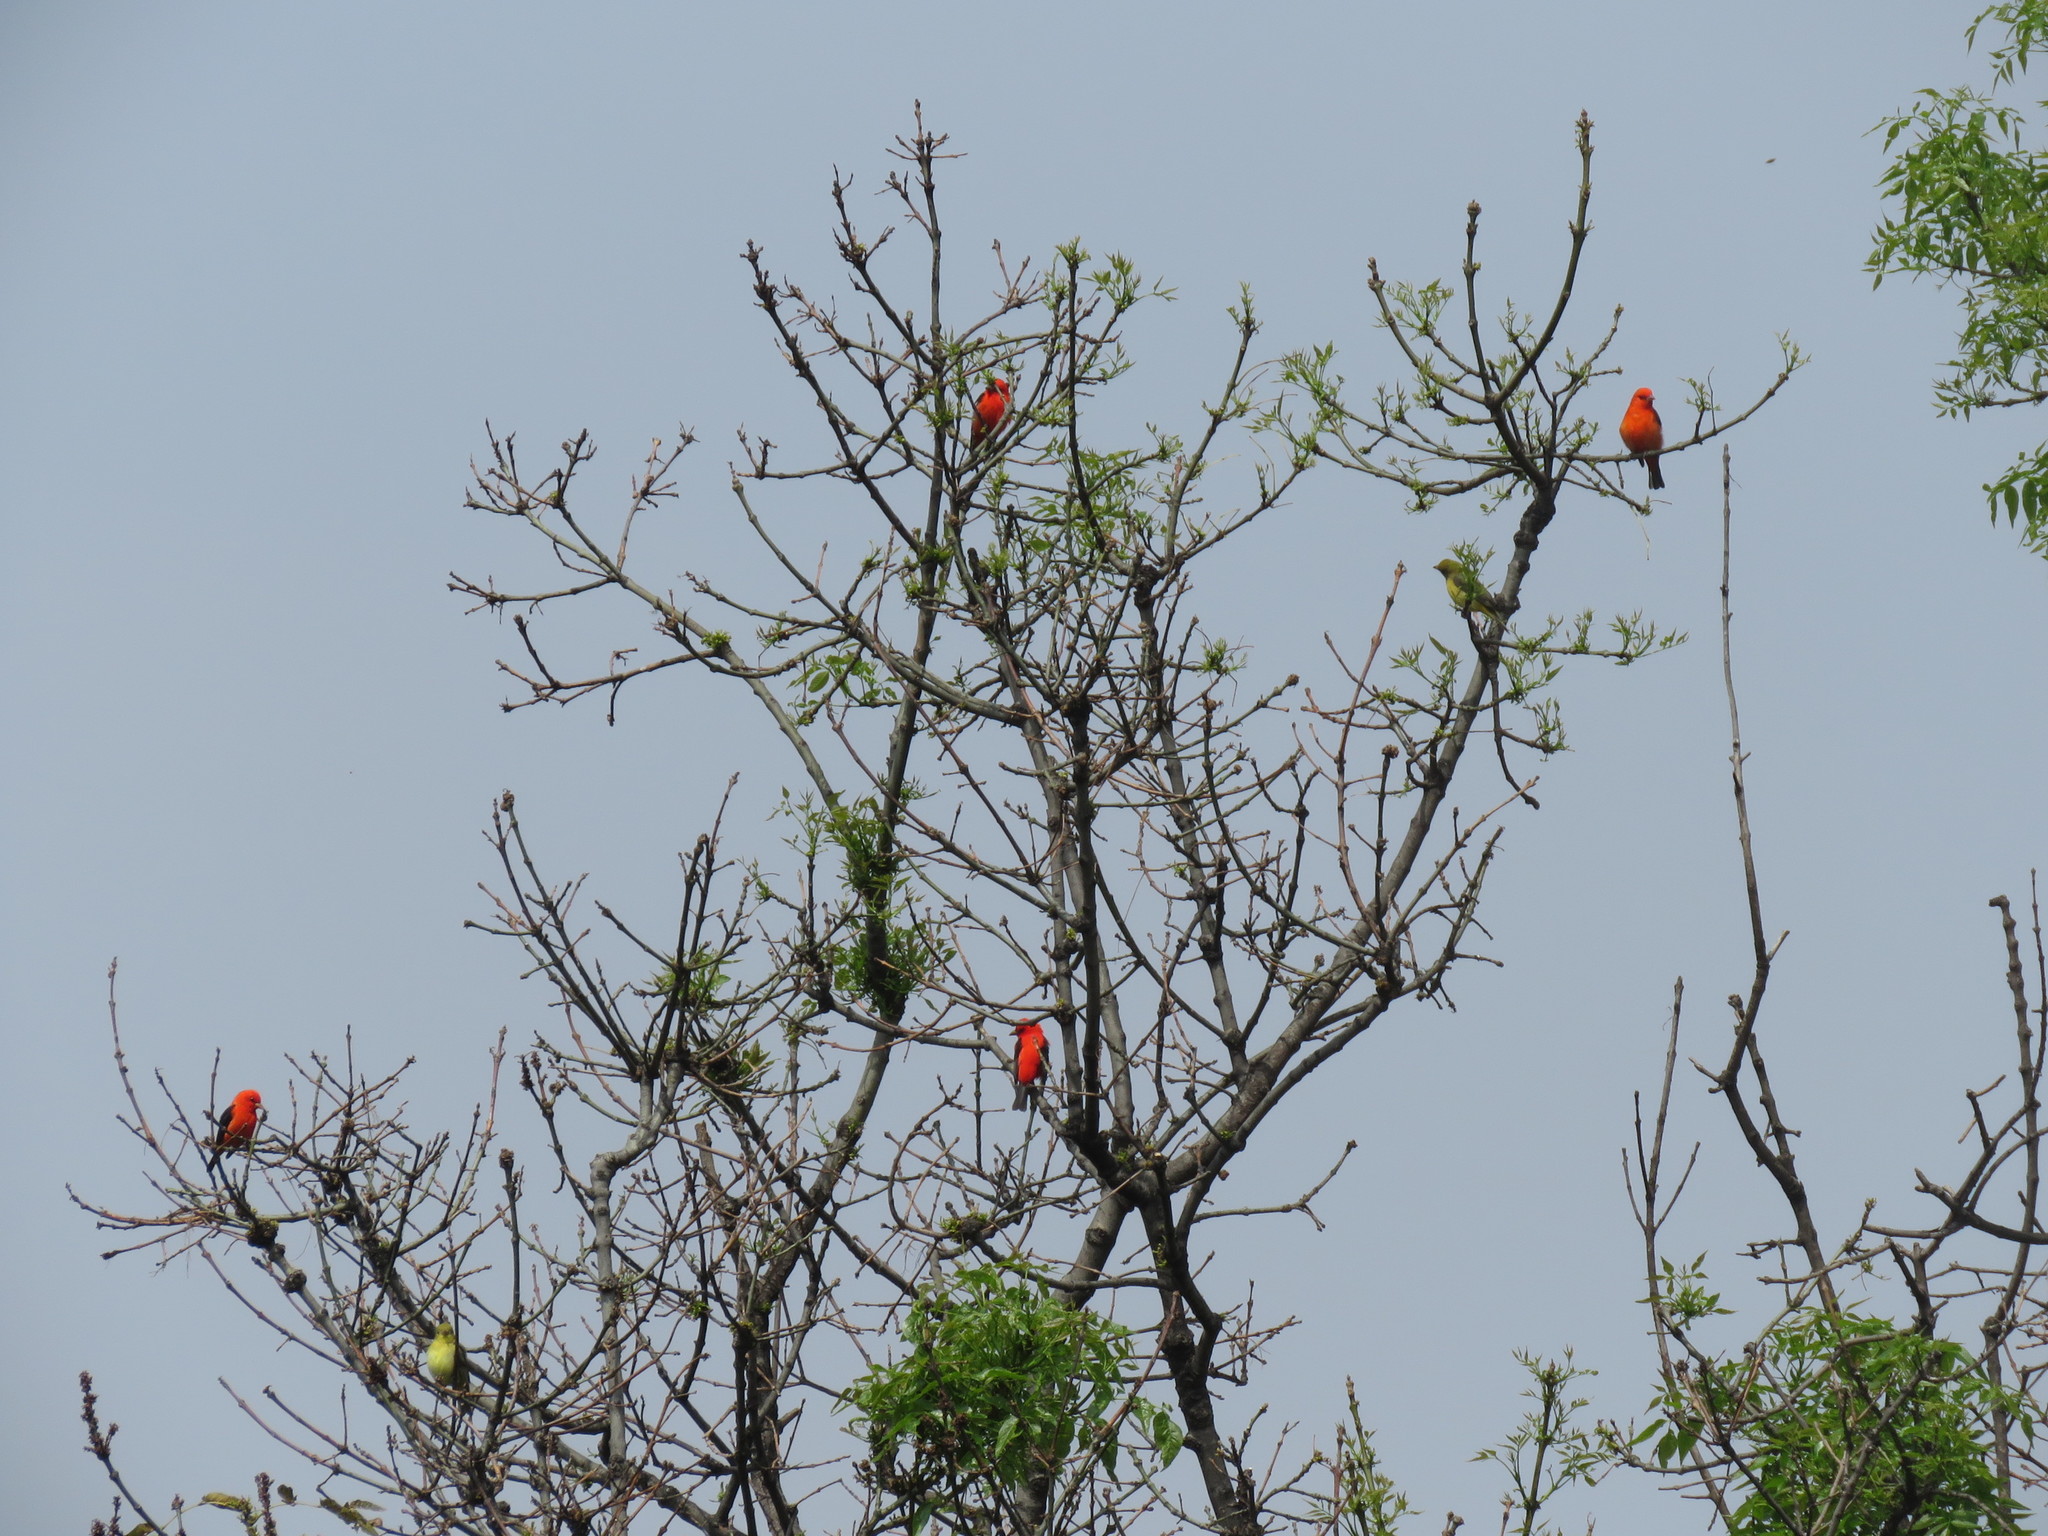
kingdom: Animalia
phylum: Chordata
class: Aves
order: Passeriformes
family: Cardinalidae
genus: Piranga
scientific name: Piranga olivacea
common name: Scarlet tanager
